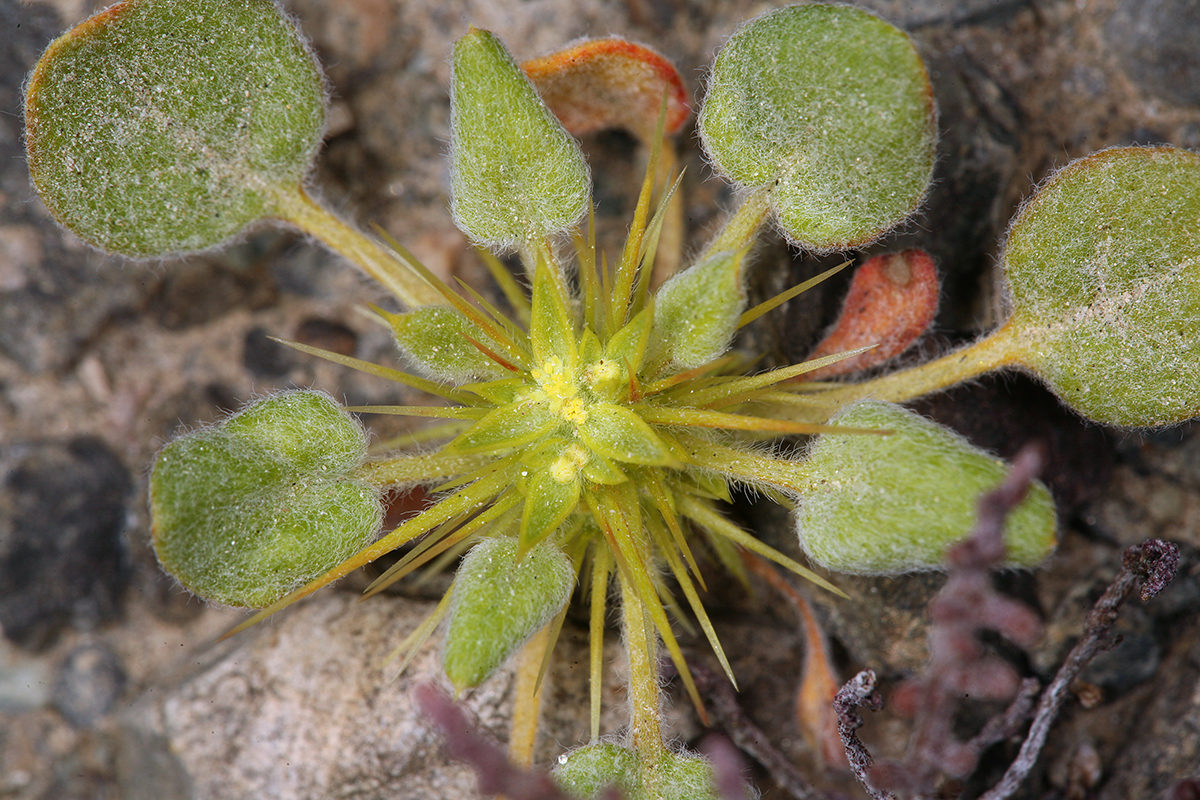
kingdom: Plantae
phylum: Tracheophyta
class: Magnoliopsida
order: Caryophyllales
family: Polygonaceae
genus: Chorizanthe
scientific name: Chorizanthe rigida
